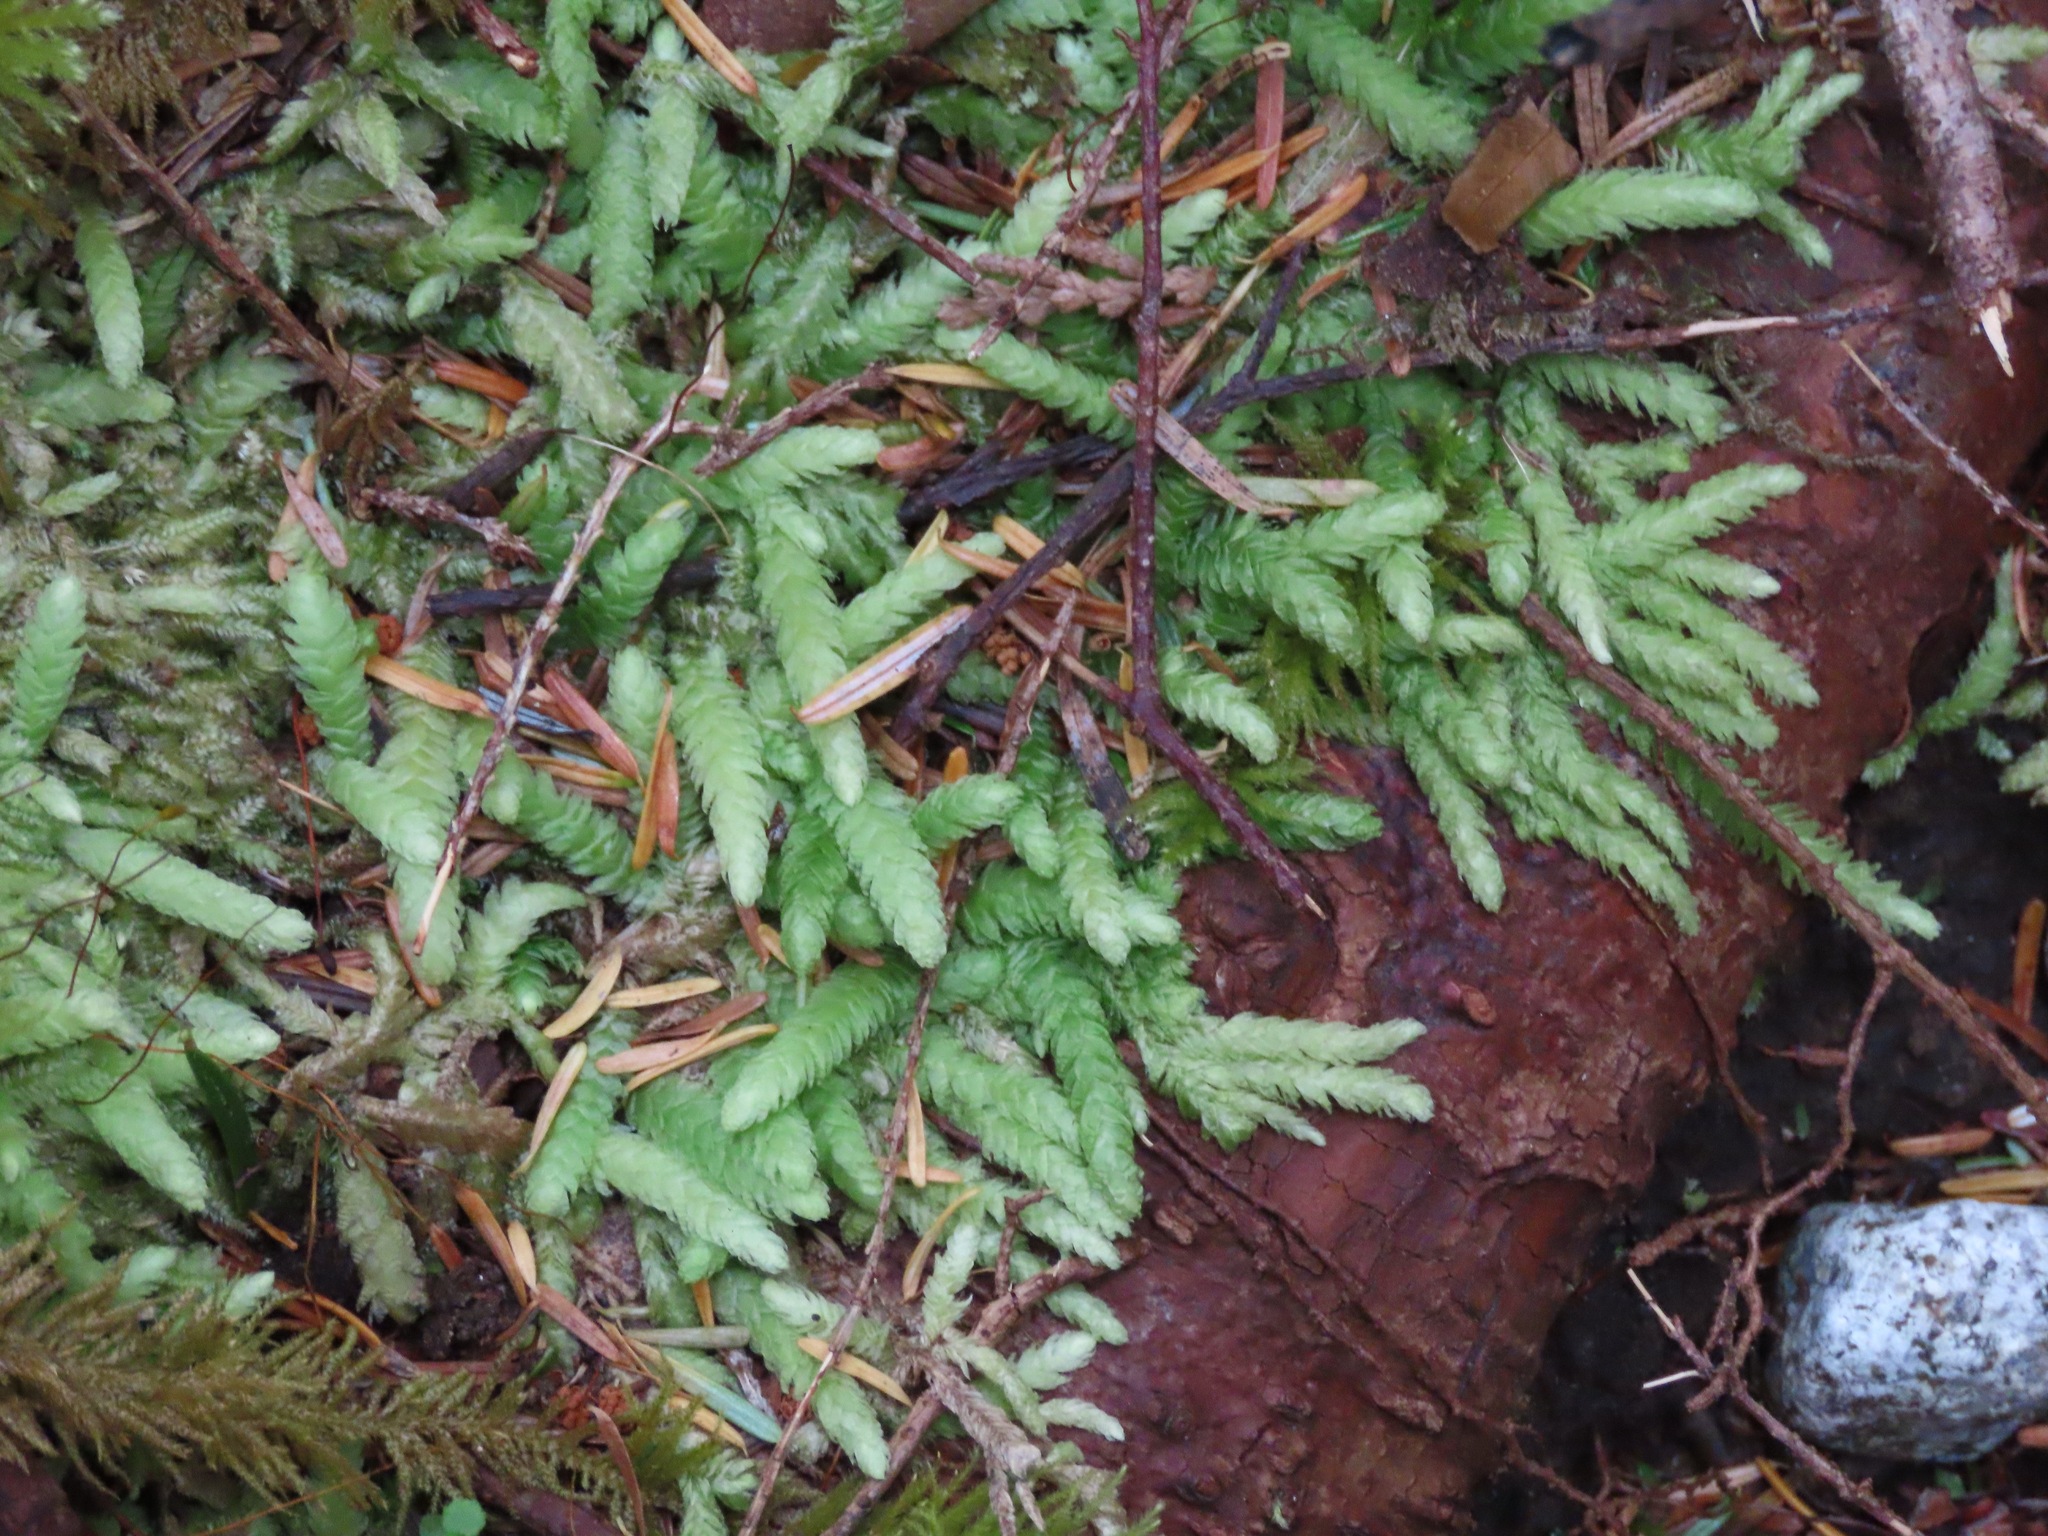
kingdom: Plantae
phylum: Bryophyta
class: Bryopsida
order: Hypnales
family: Plagiotheciaceae
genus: Plagiothecium
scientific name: Plagiothecium undulatum
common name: Waved silk-moss
